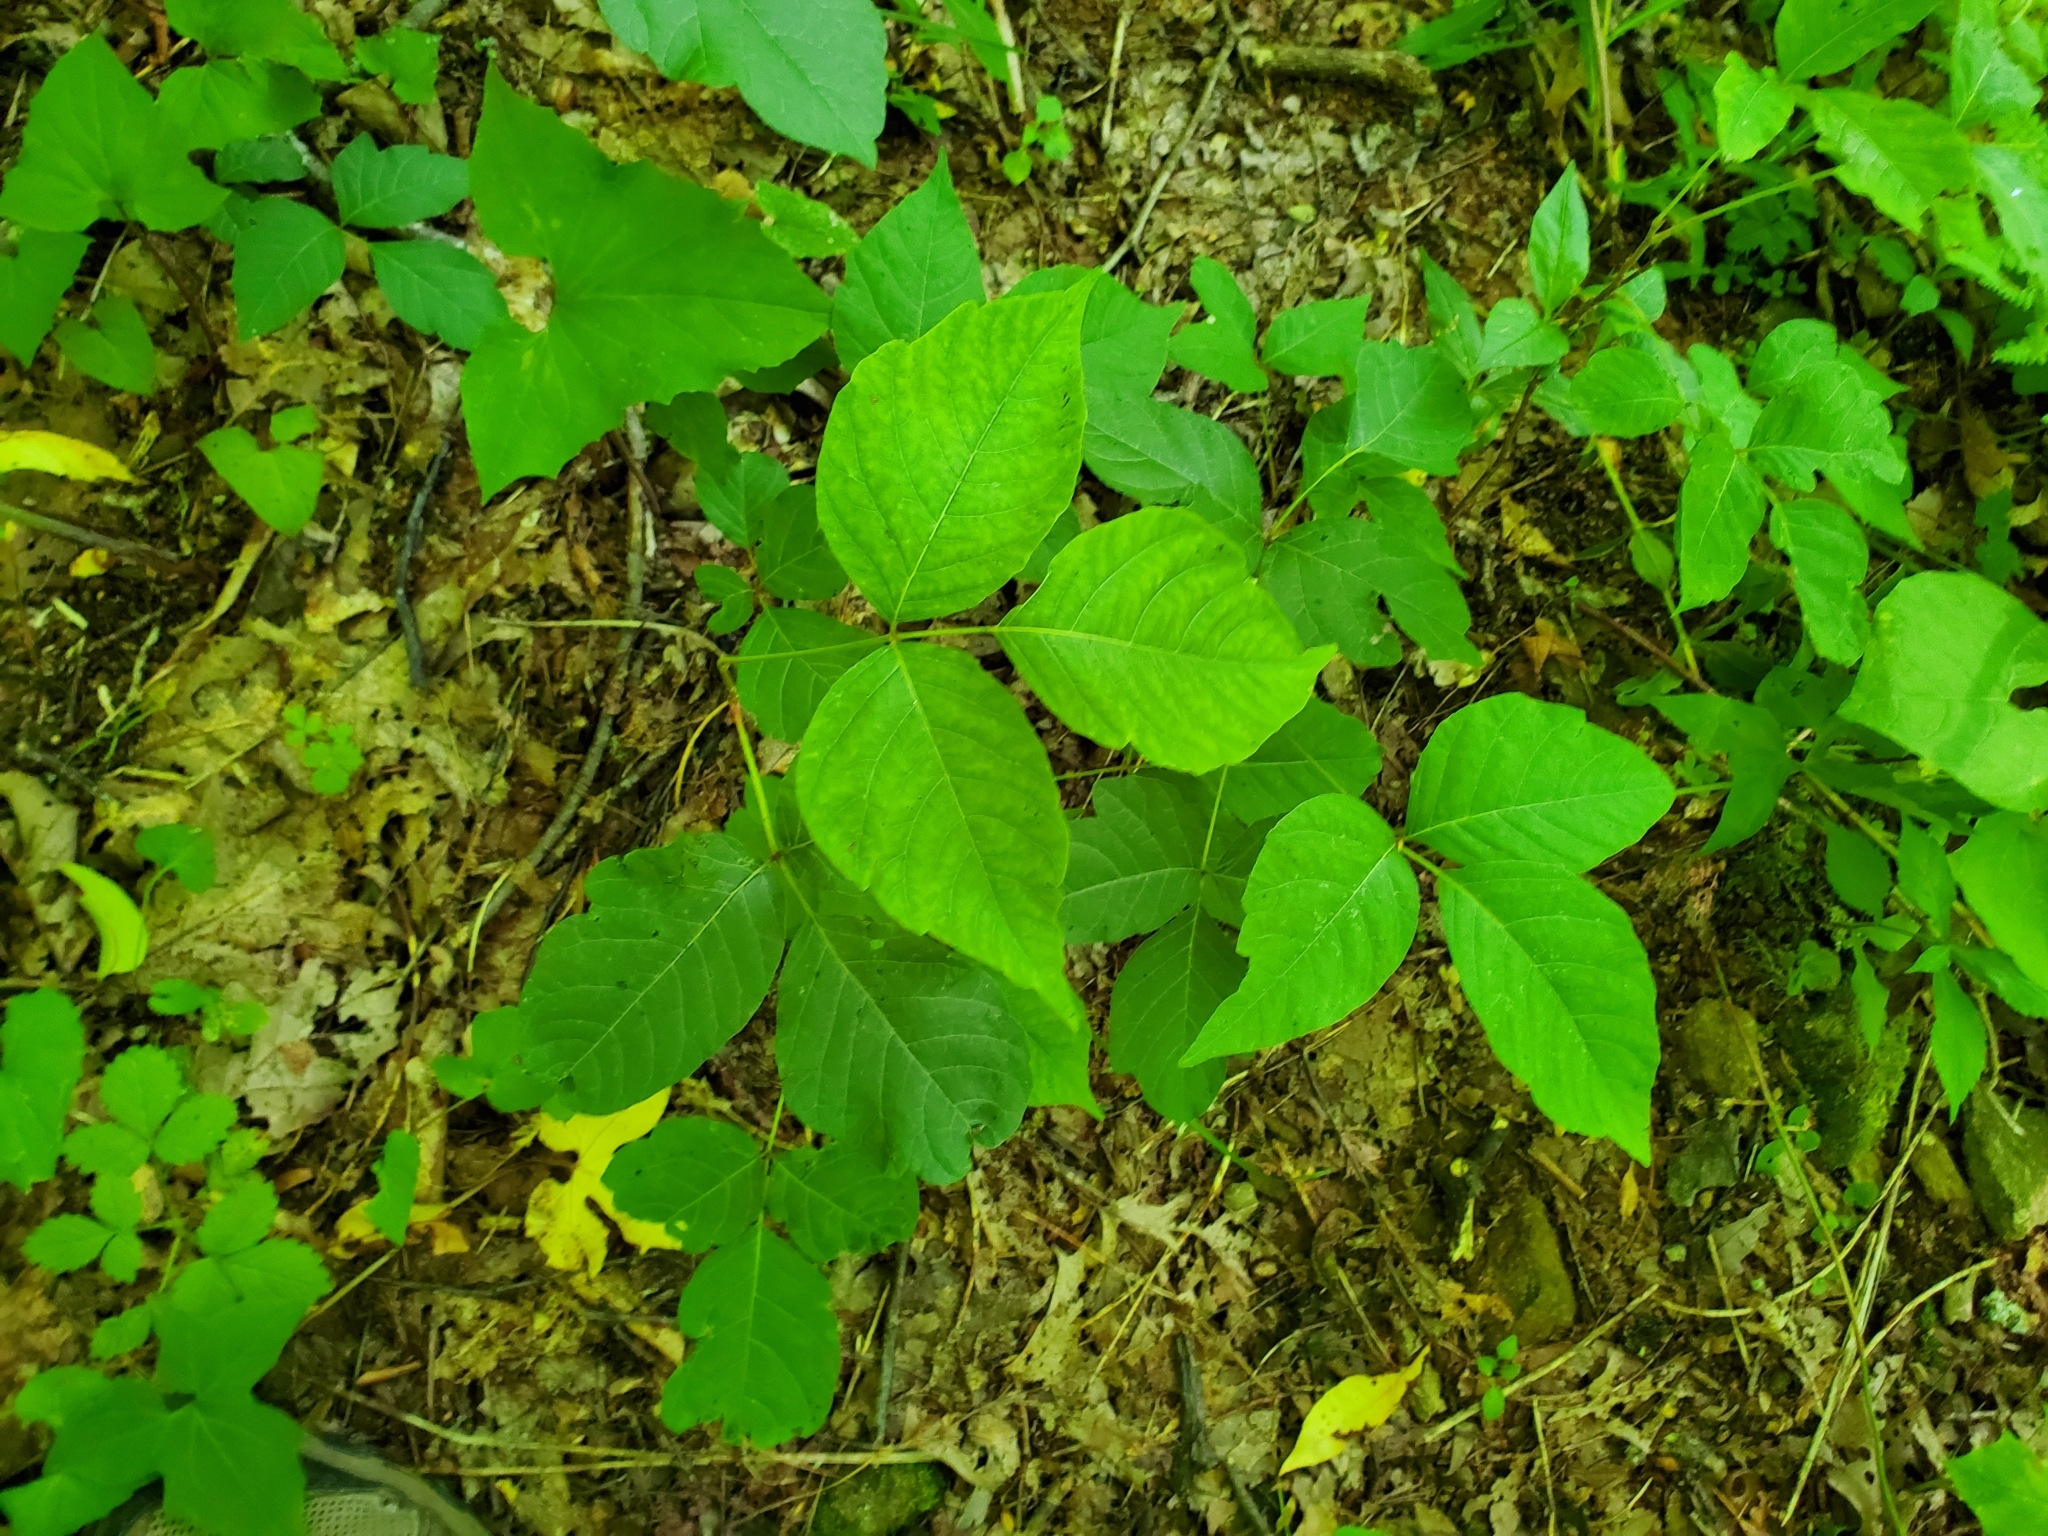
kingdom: Plantae
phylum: Tracheophyta
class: Magnoliopsida
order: Sapindales
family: Anacardiaceae
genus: Toxicodendron
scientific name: Toxicodendron radicans
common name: Poison ivy
